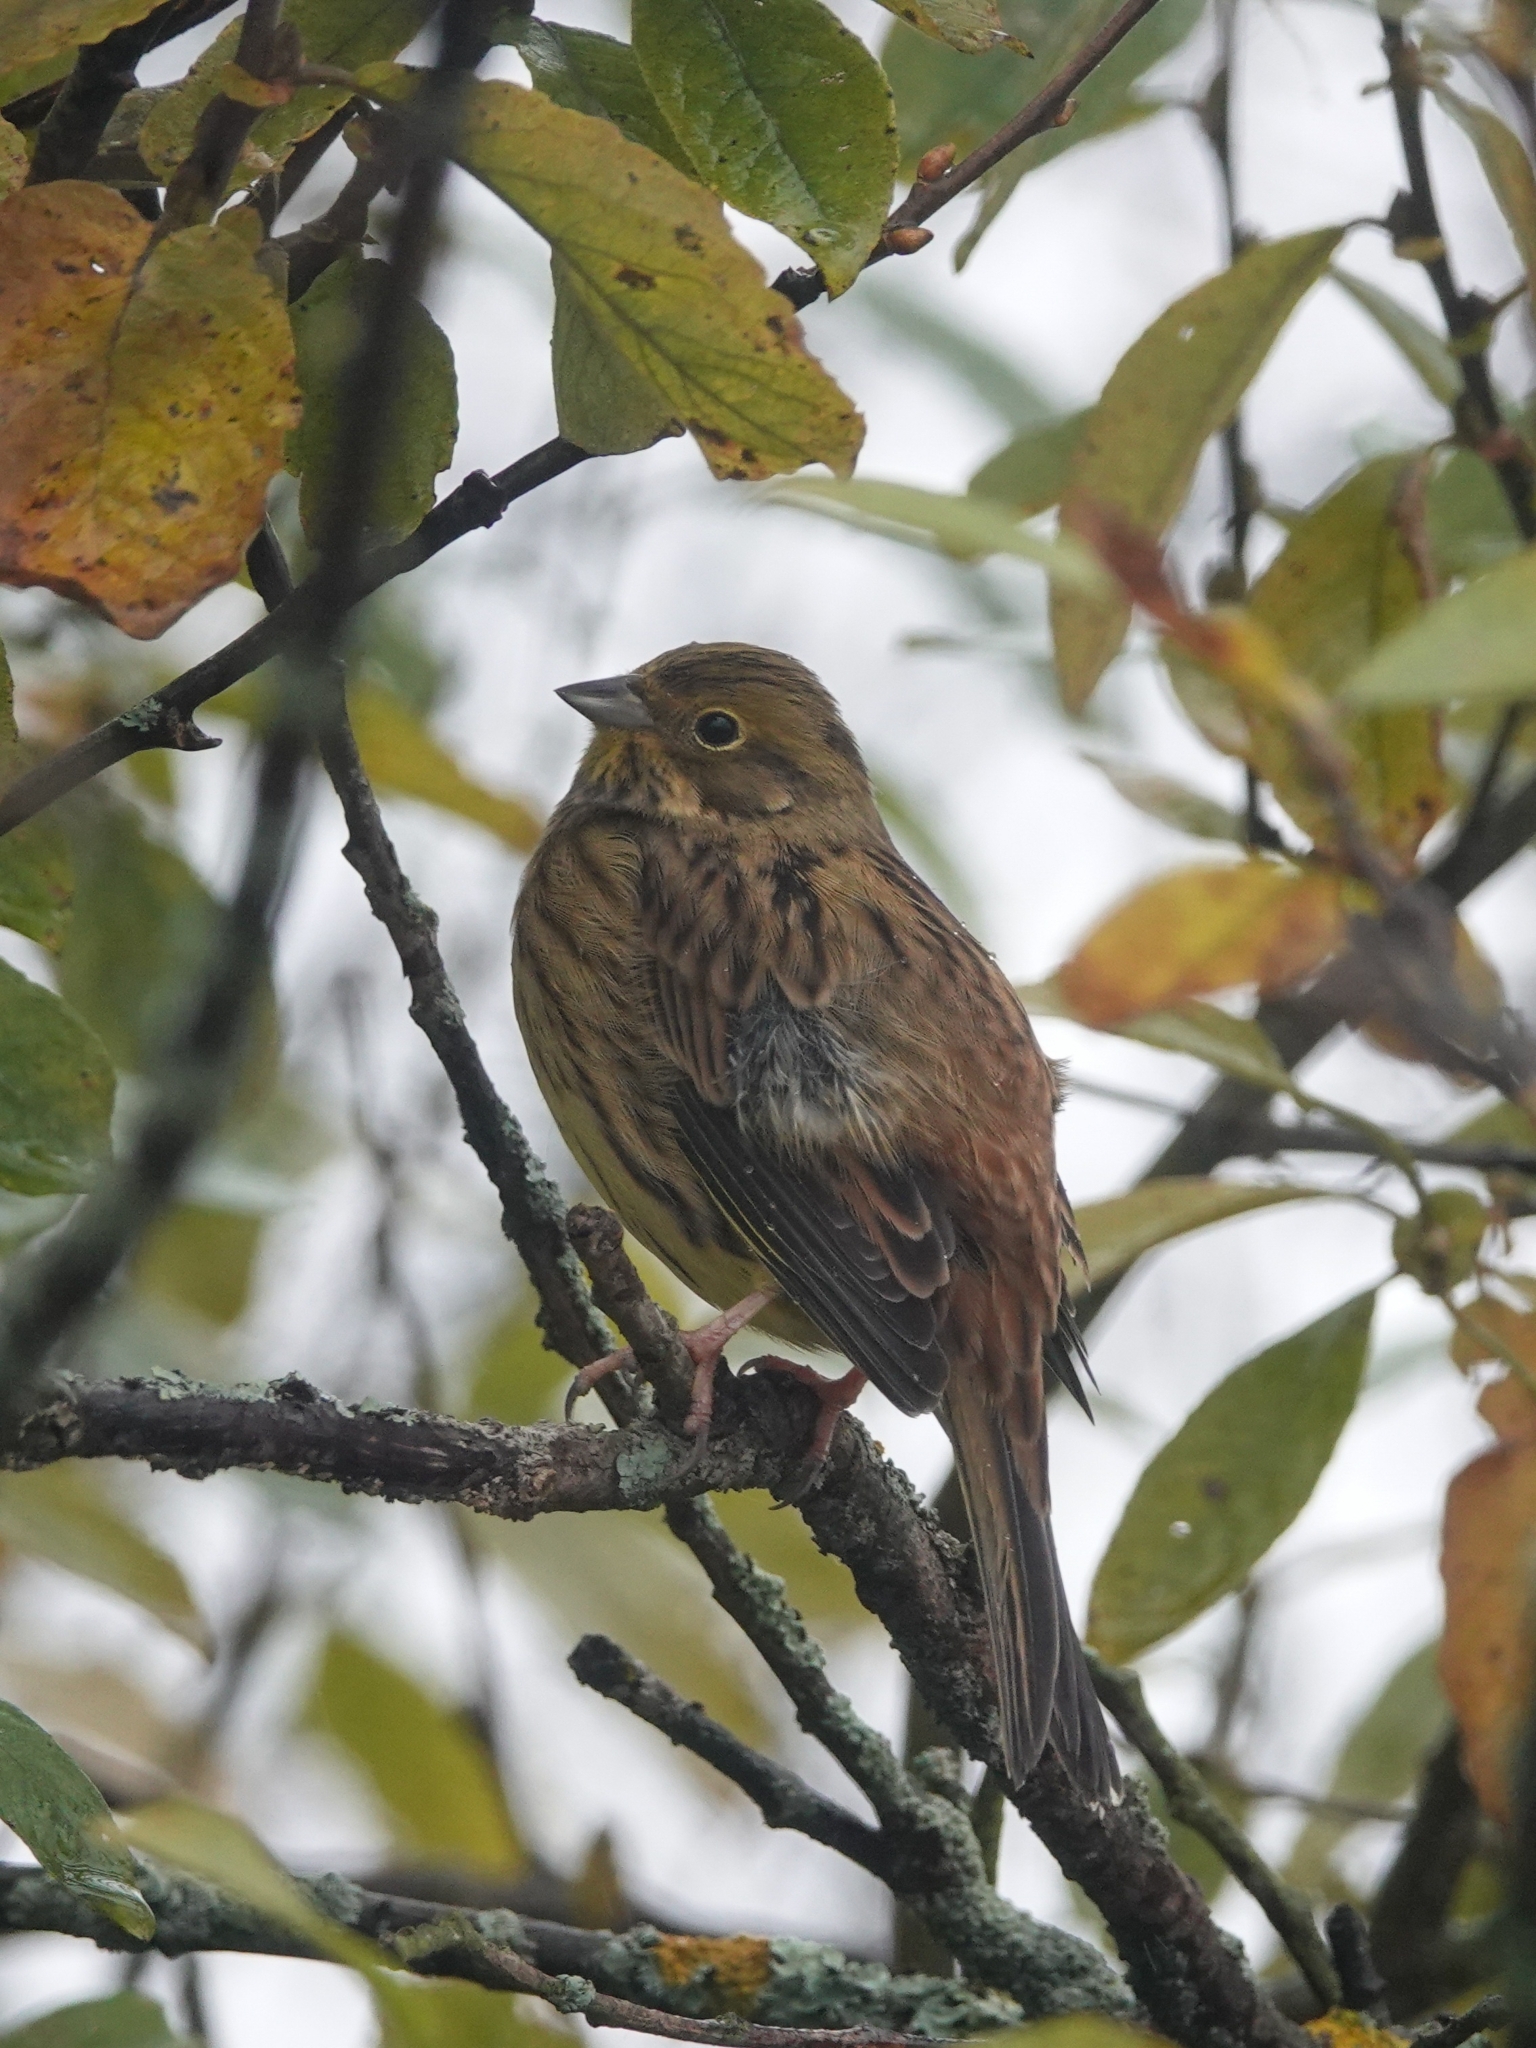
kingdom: Animalia
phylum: Chordata
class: Aves
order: Passeriformes
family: Emberizidae
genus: Emberiza
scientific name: Emberiza citrinella
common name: Yellowhammer
